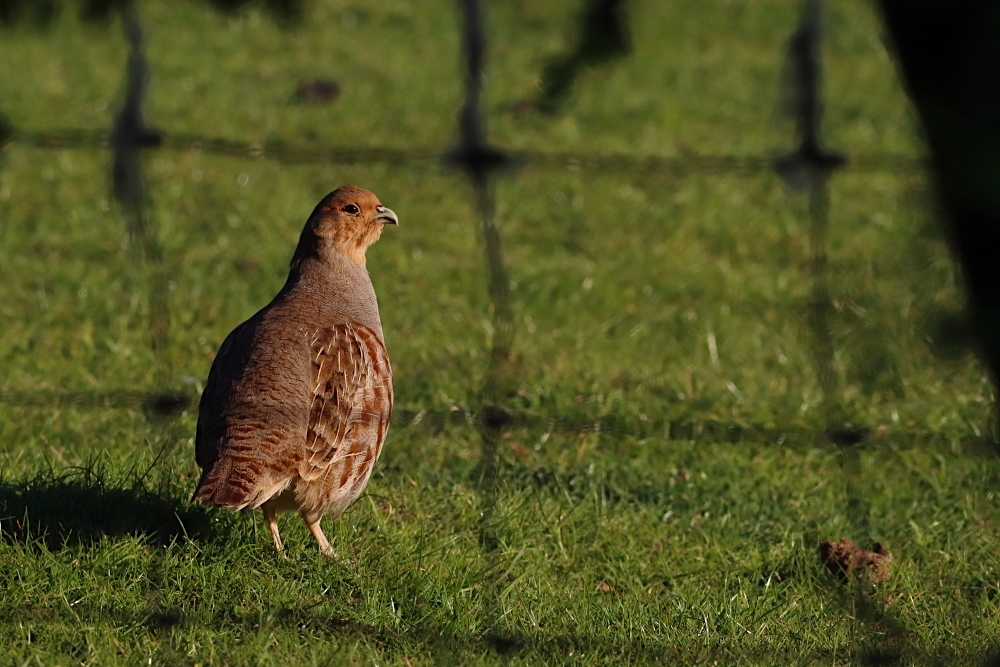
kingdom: Animalia
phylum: Chordata
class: Aves
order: Galliformes
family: Phasianidae
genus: Perdix
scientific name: Perdix perdix
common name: Grey partridge
